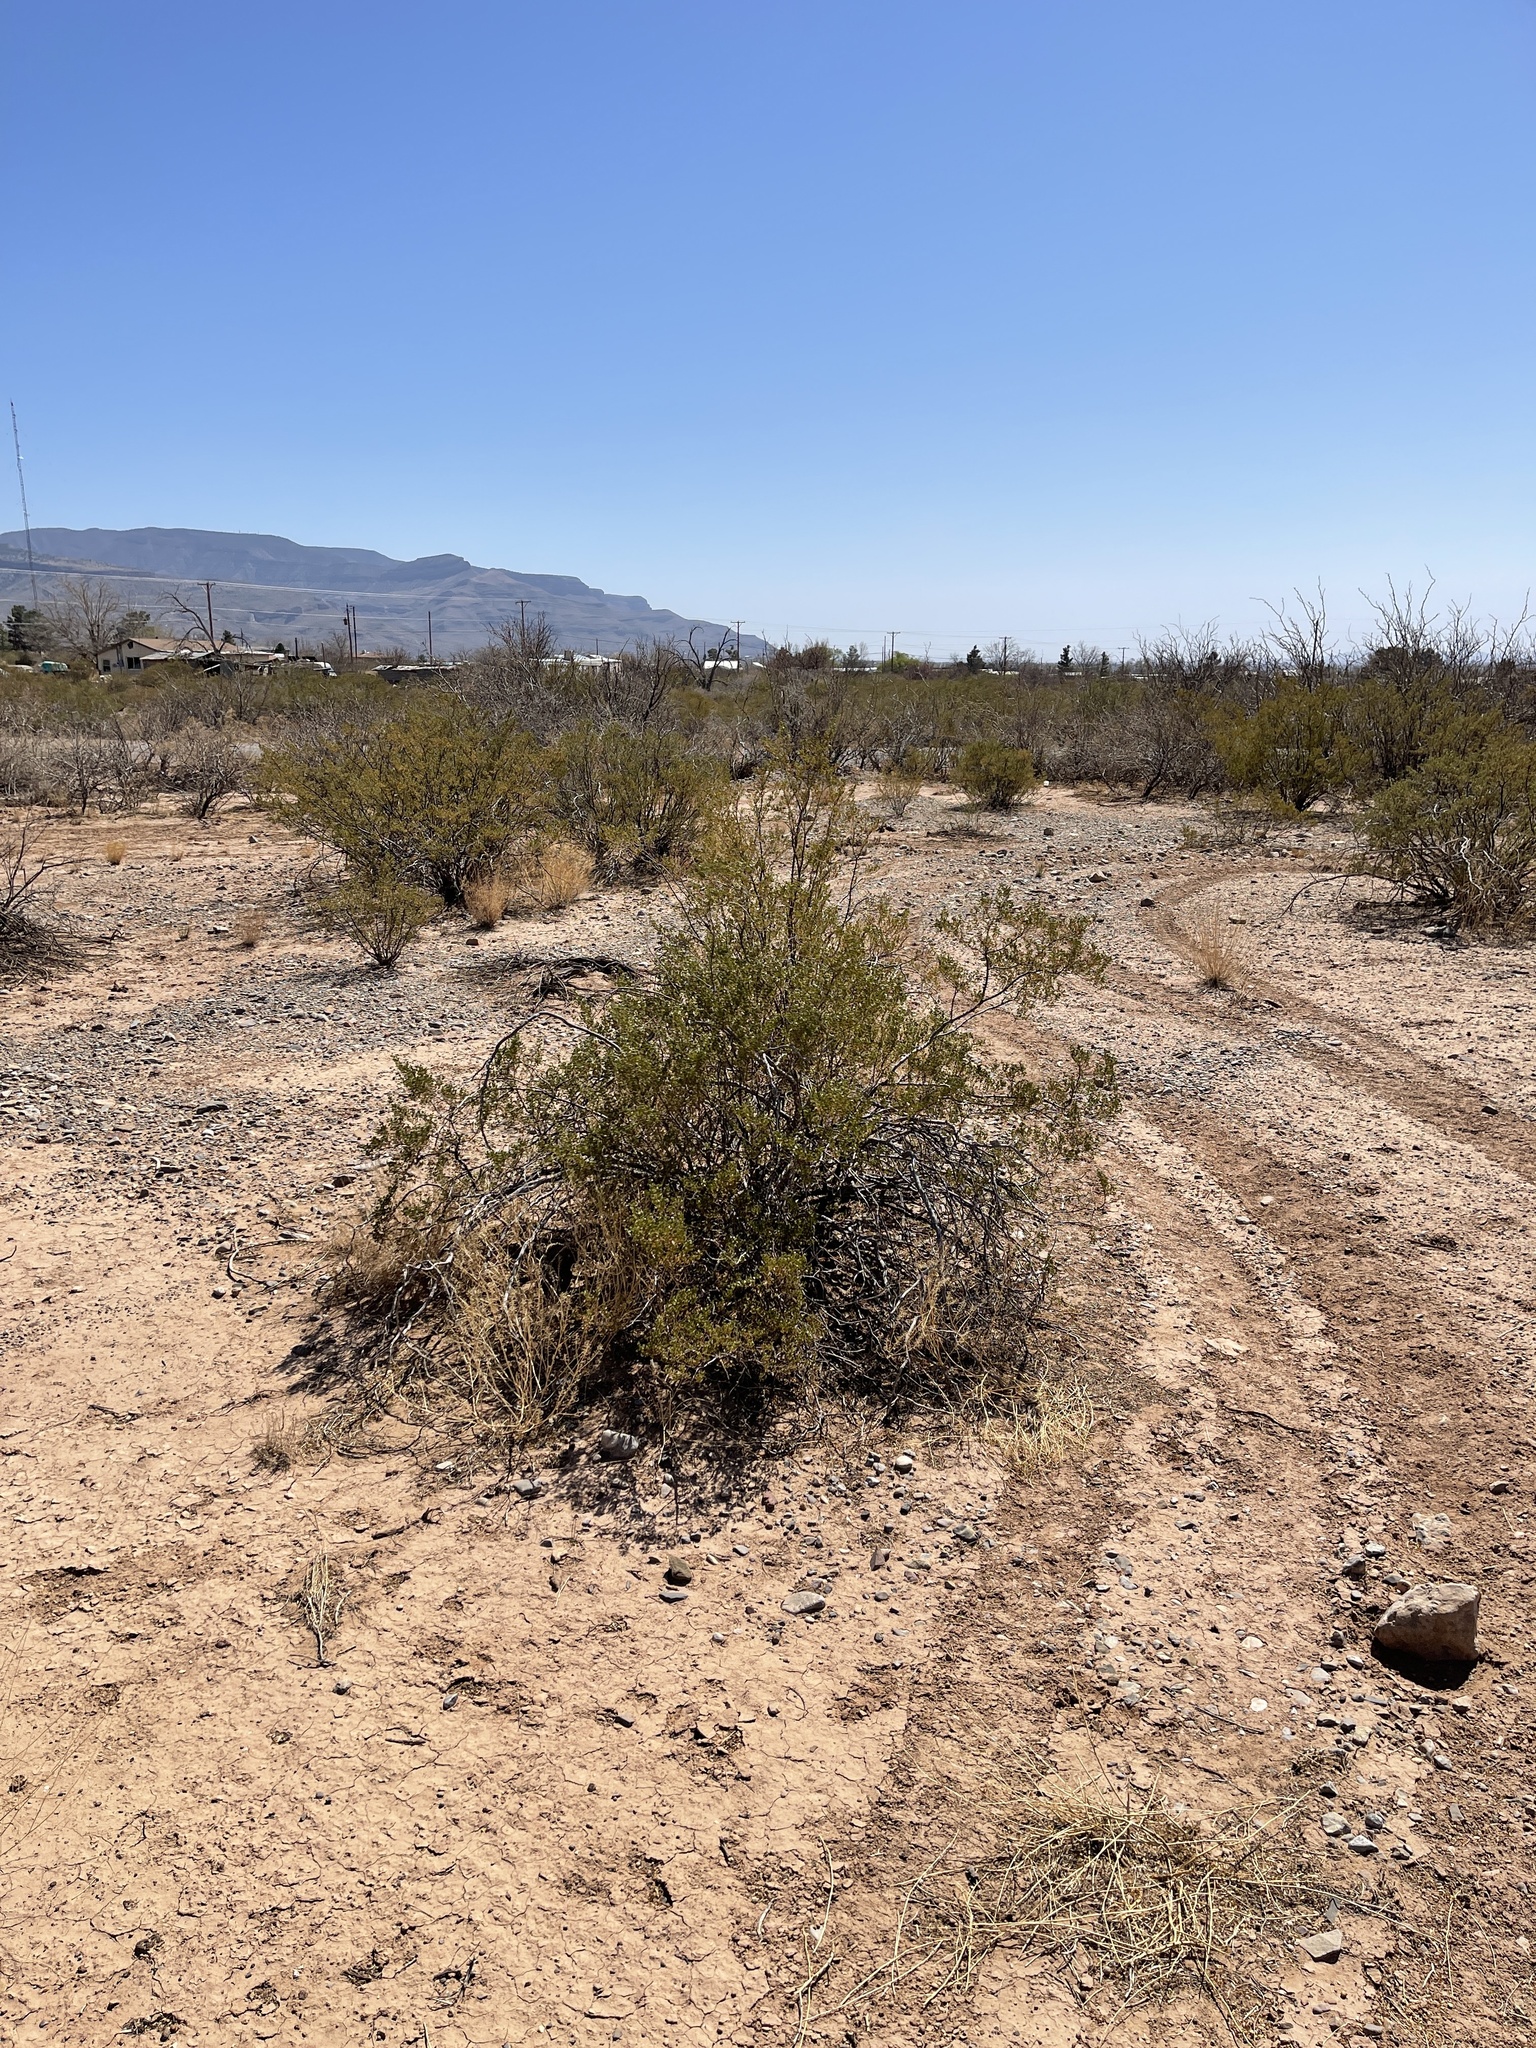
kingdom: Plantae
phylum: Tracheophyta
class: Magnoliopsida
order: Zygophyllales
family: Zygophyllaceae
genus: Larrea
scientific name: Larrea tridentata
